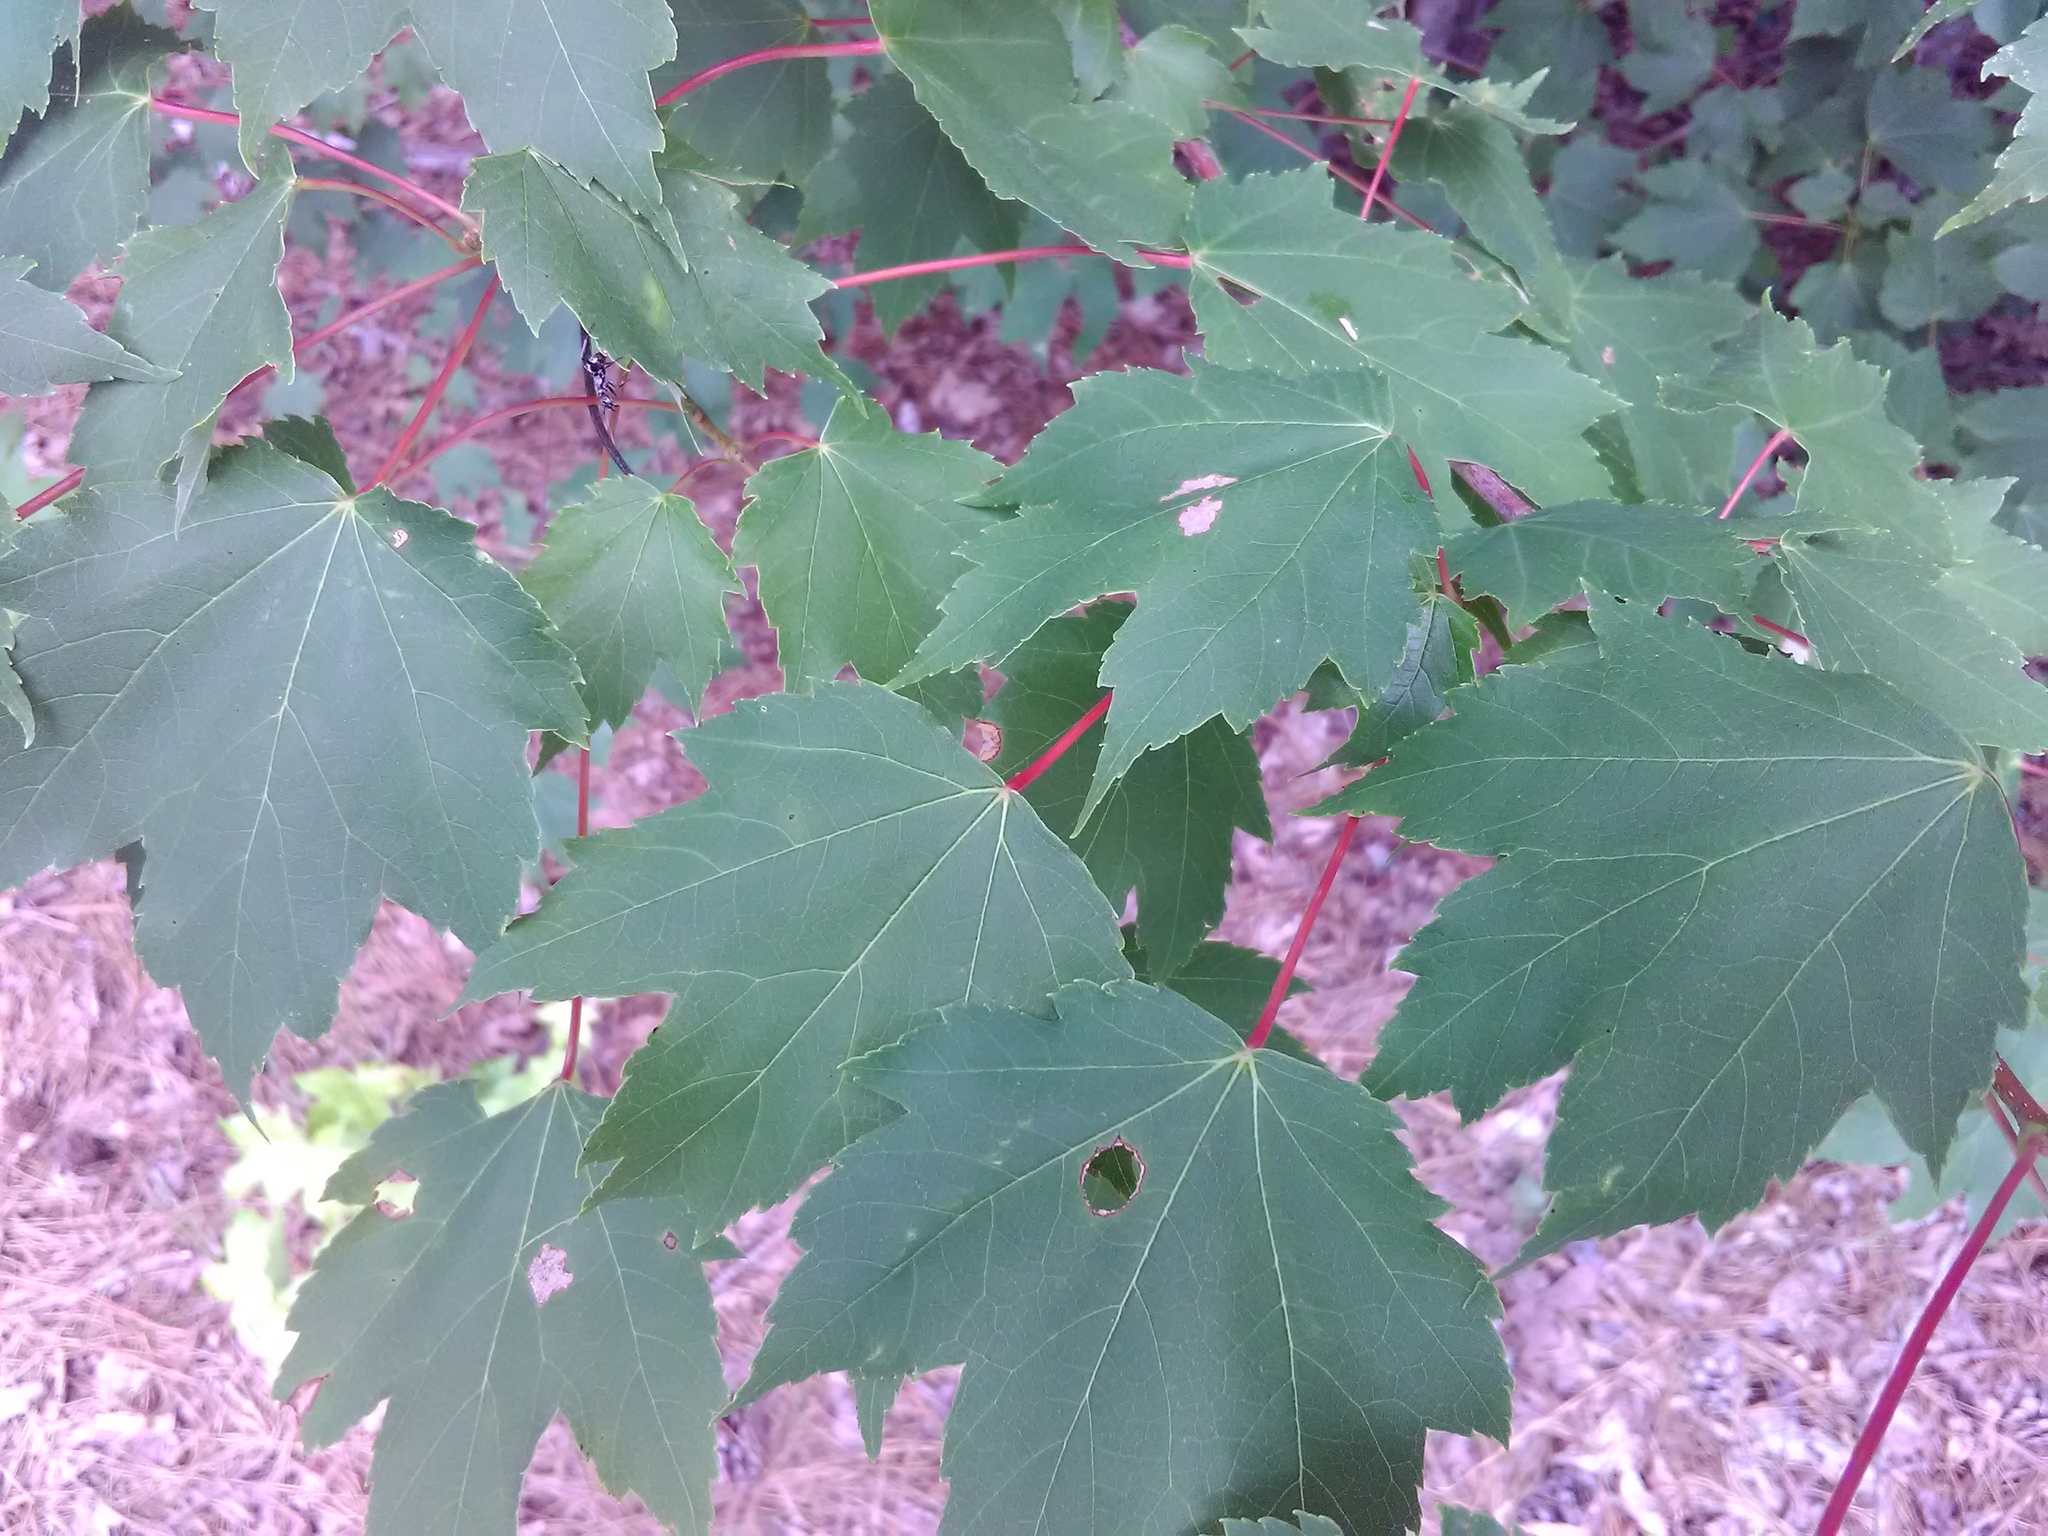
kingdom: Plantae
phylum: Tracheophyta
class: Magnoliopsida
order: Sapindales
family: Sapindaceae
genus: Acer
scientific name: Acer rubrum
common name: Red maple
